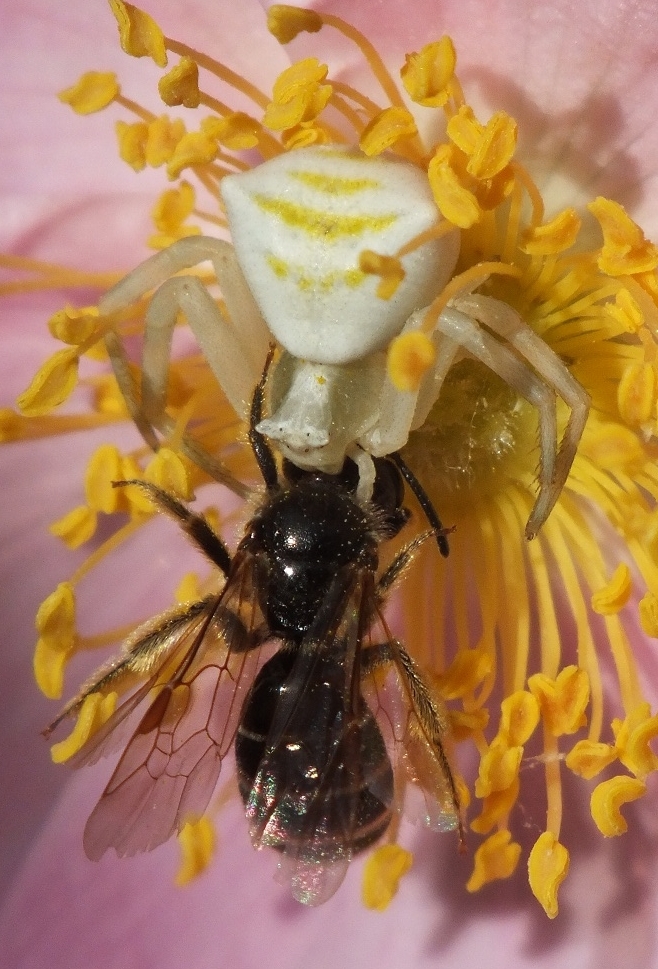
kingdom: Animalia
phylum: Arthropoda
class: Arachnida
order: Araneae
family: Thomisidae
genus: Thomisus
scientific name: Thomisus onustus
